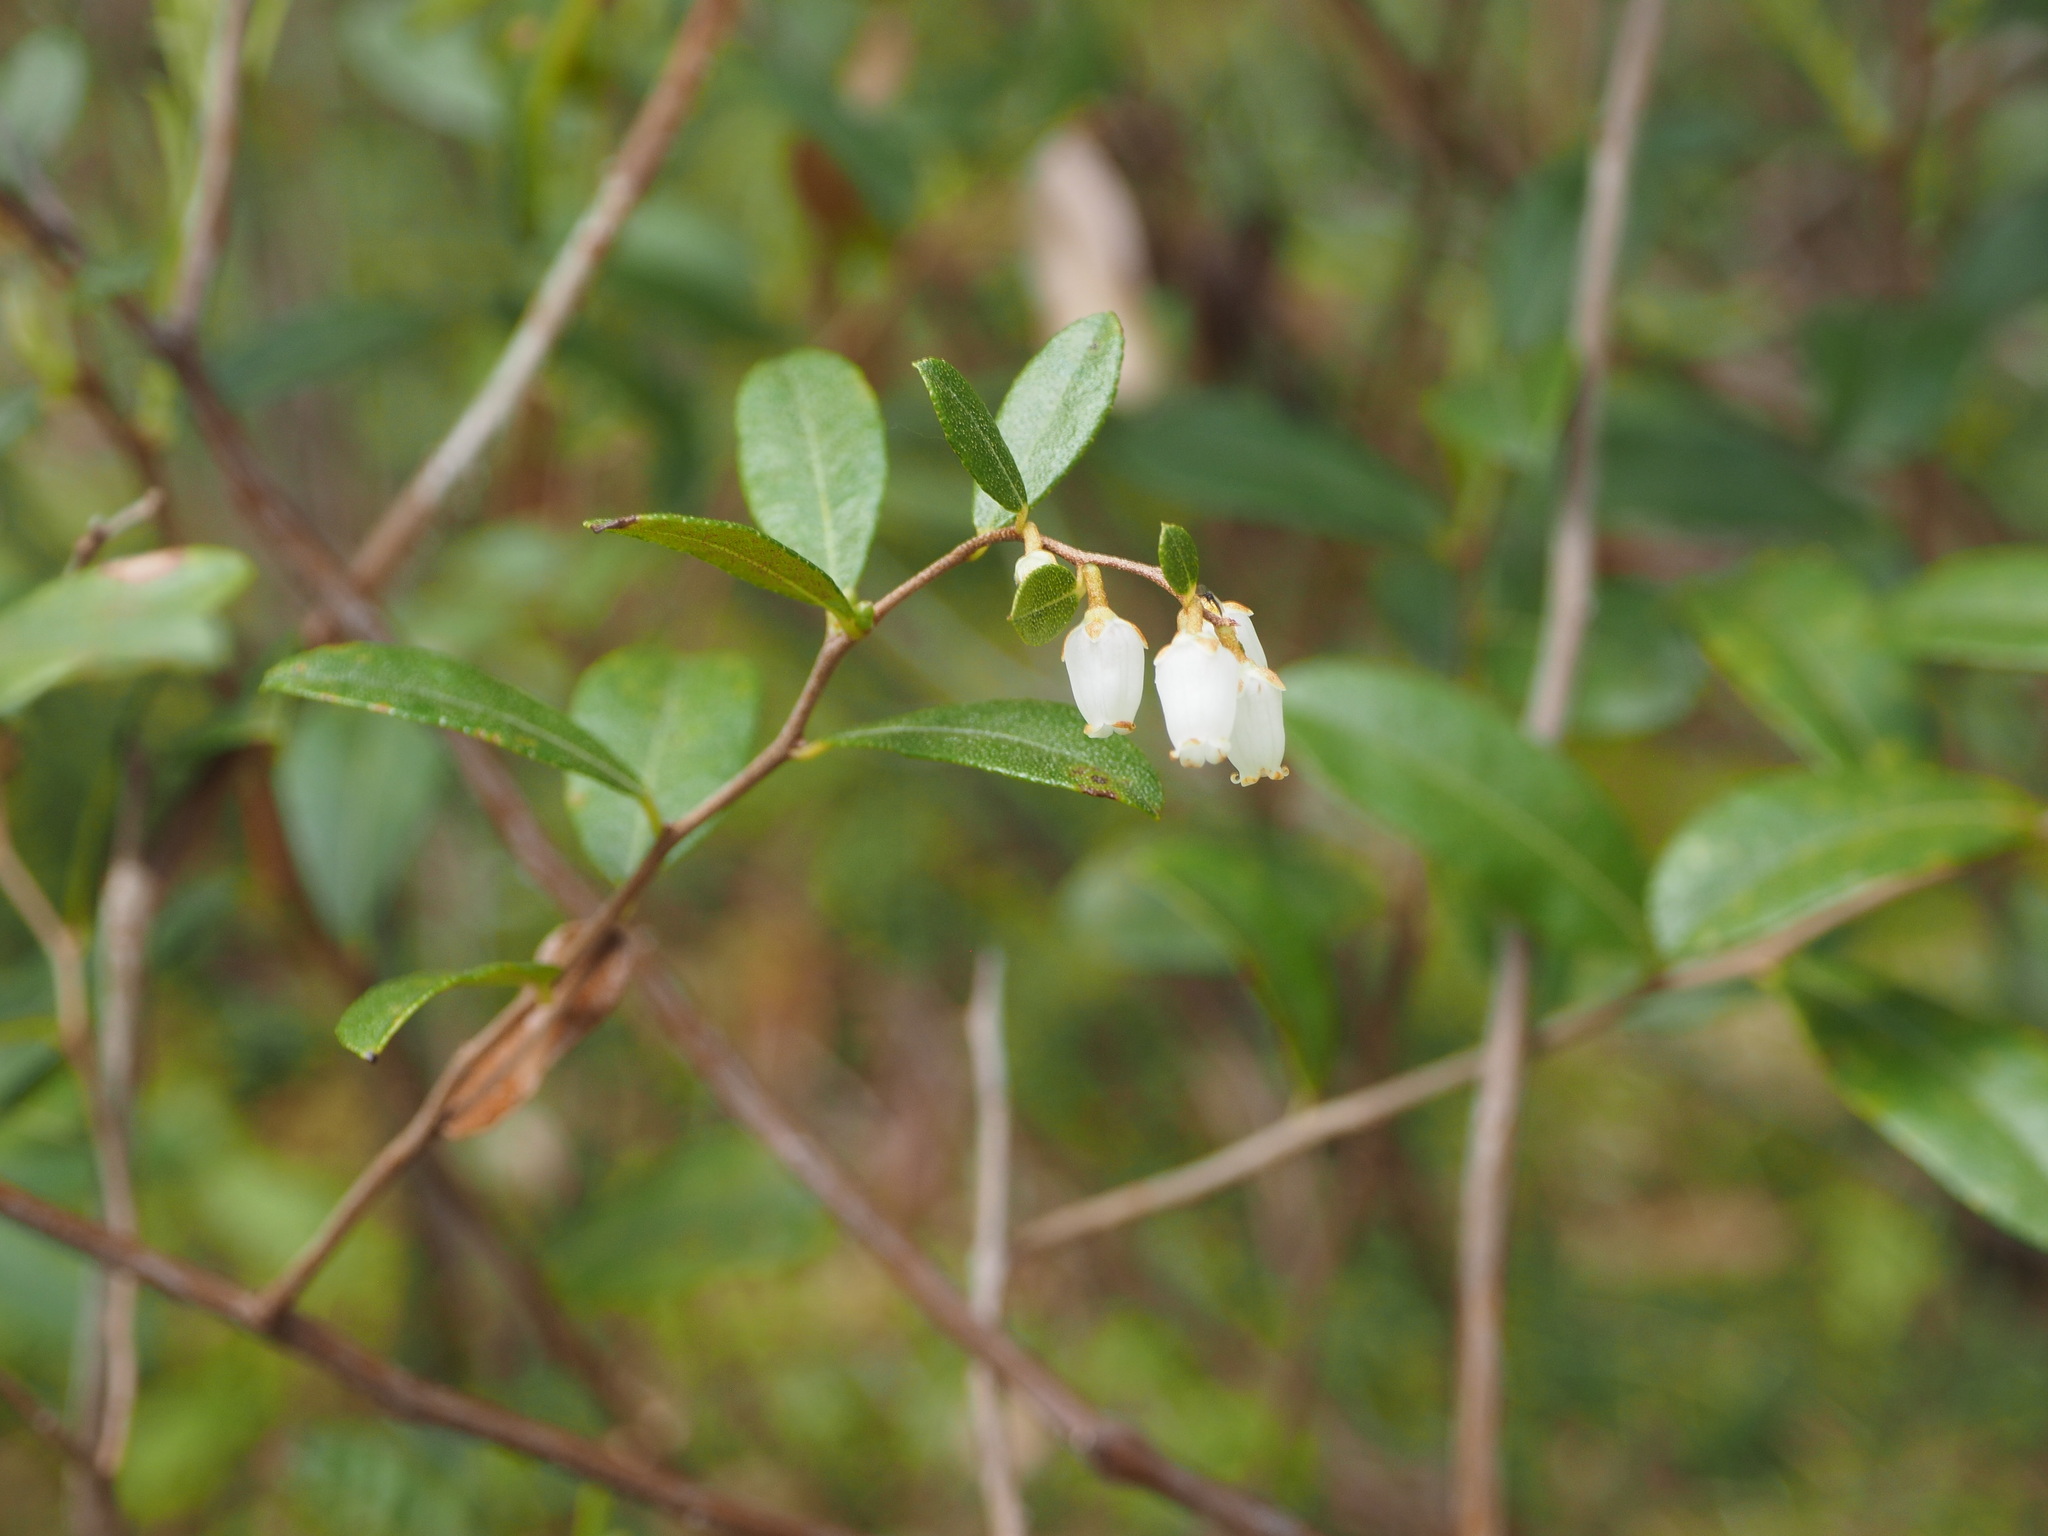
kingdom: Plantae
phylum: Tracheophyta
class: Magnoliopsida
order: Ericales
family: Ericaceae
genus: Chamaedaphne
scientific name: Chamaedaphne calyculata
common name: Leatherleaf
